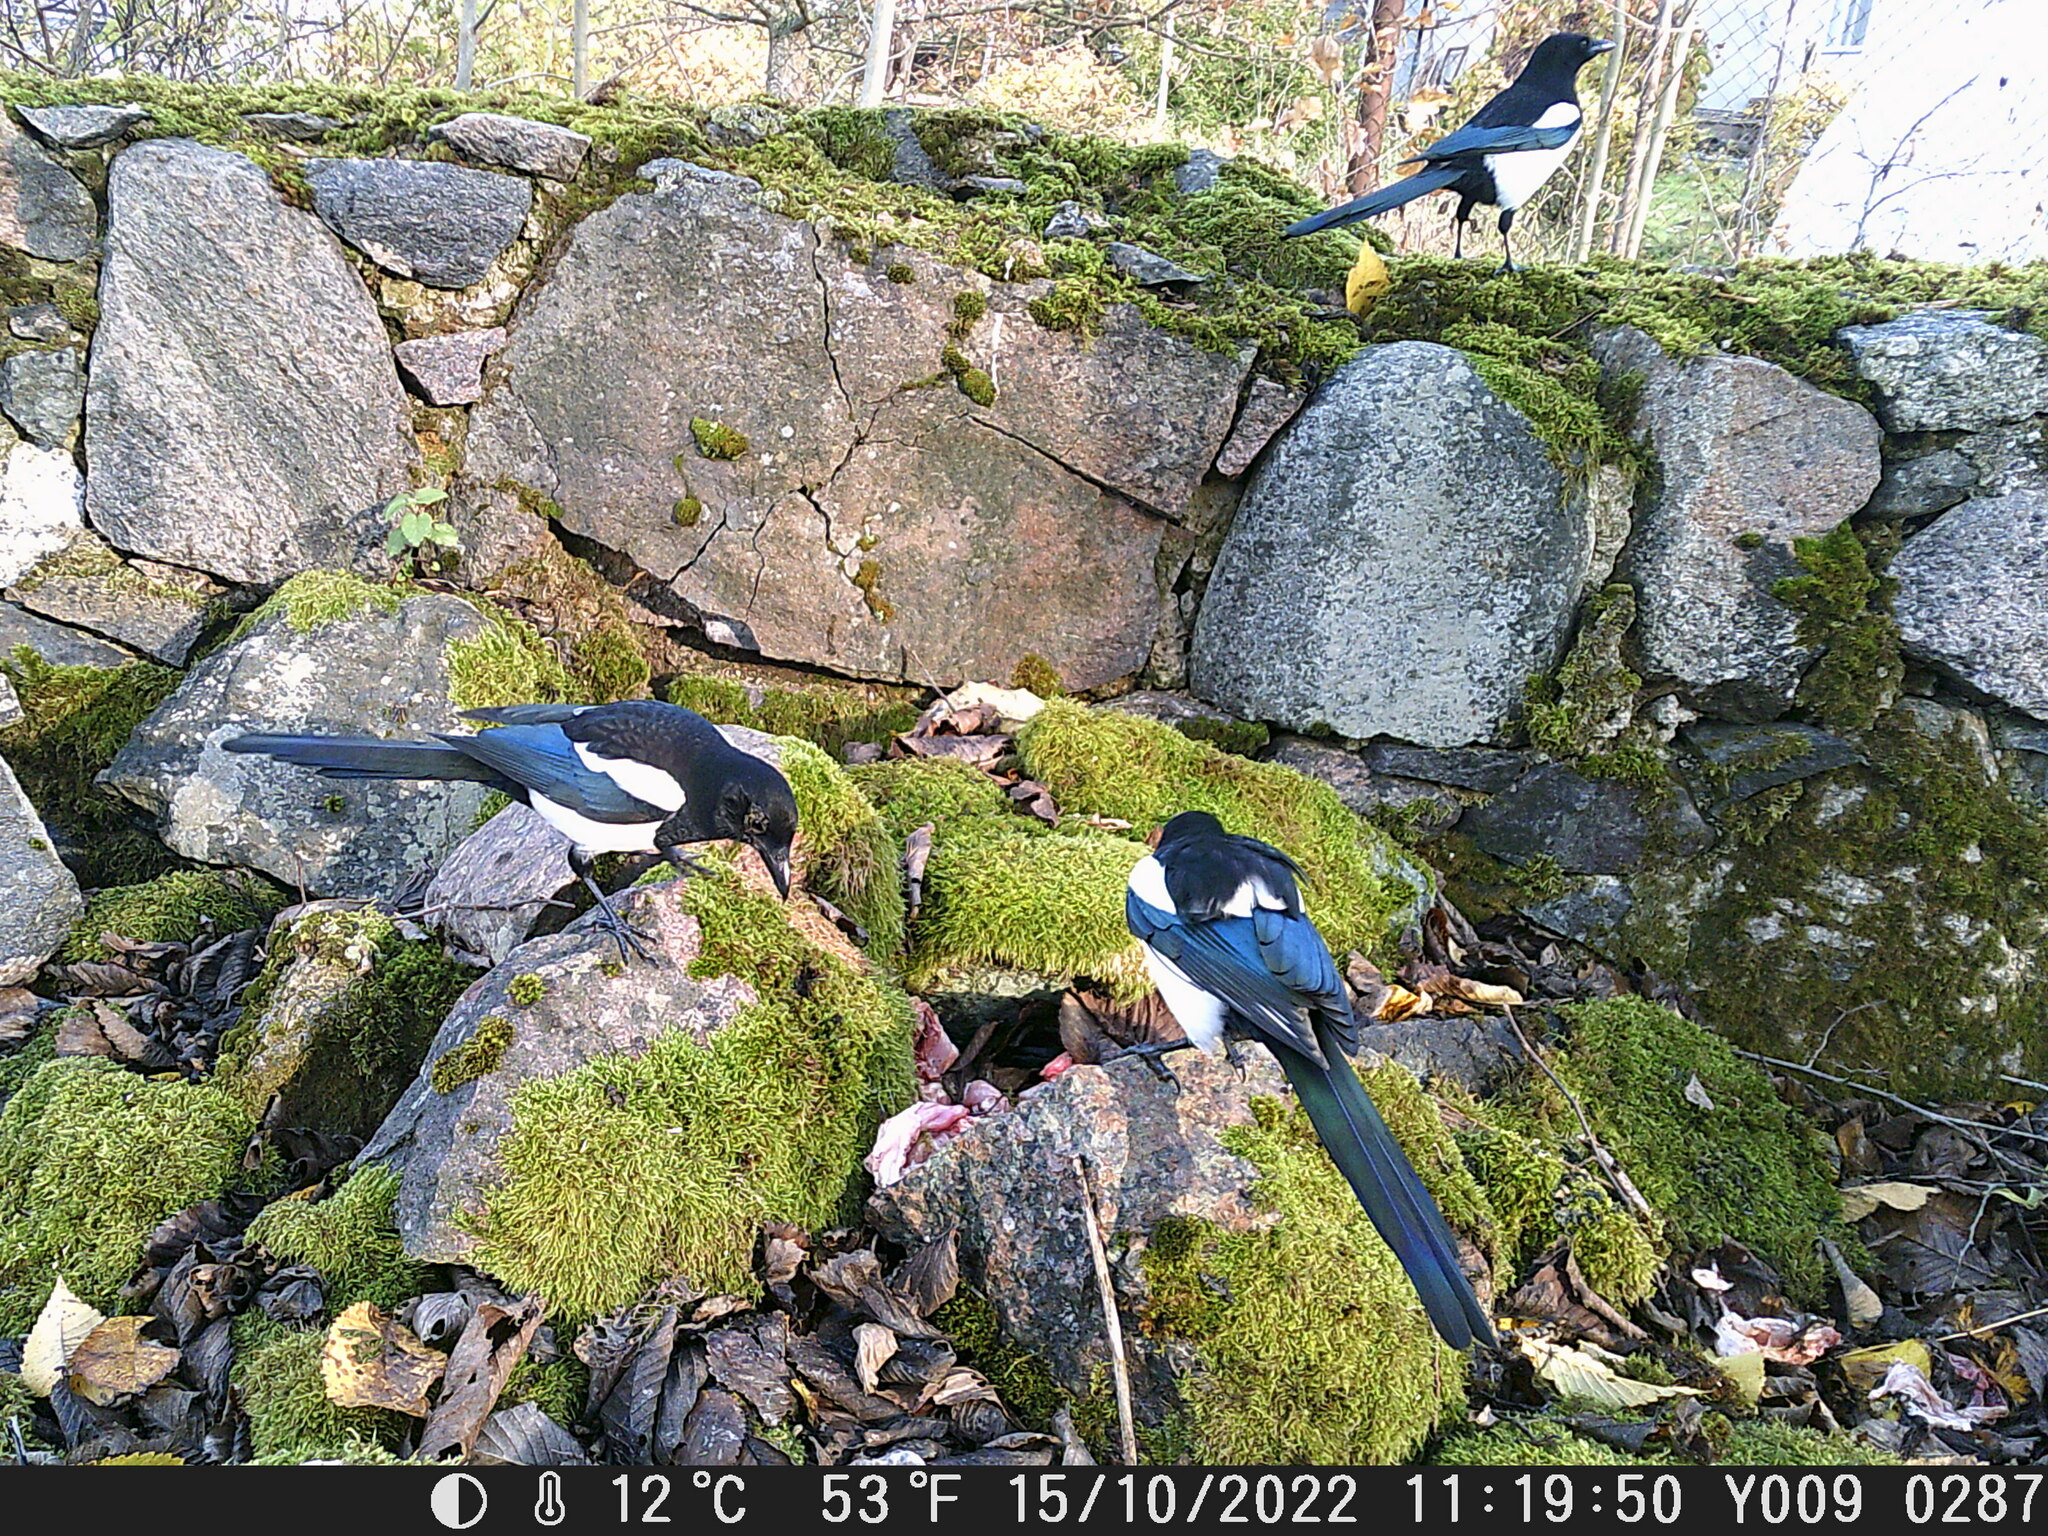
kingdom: Animalia
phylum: Chordata
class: Aves
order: Passeriformes
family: Corvidae
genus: Pica
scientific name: Pica pica
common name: Eurasian magpie
